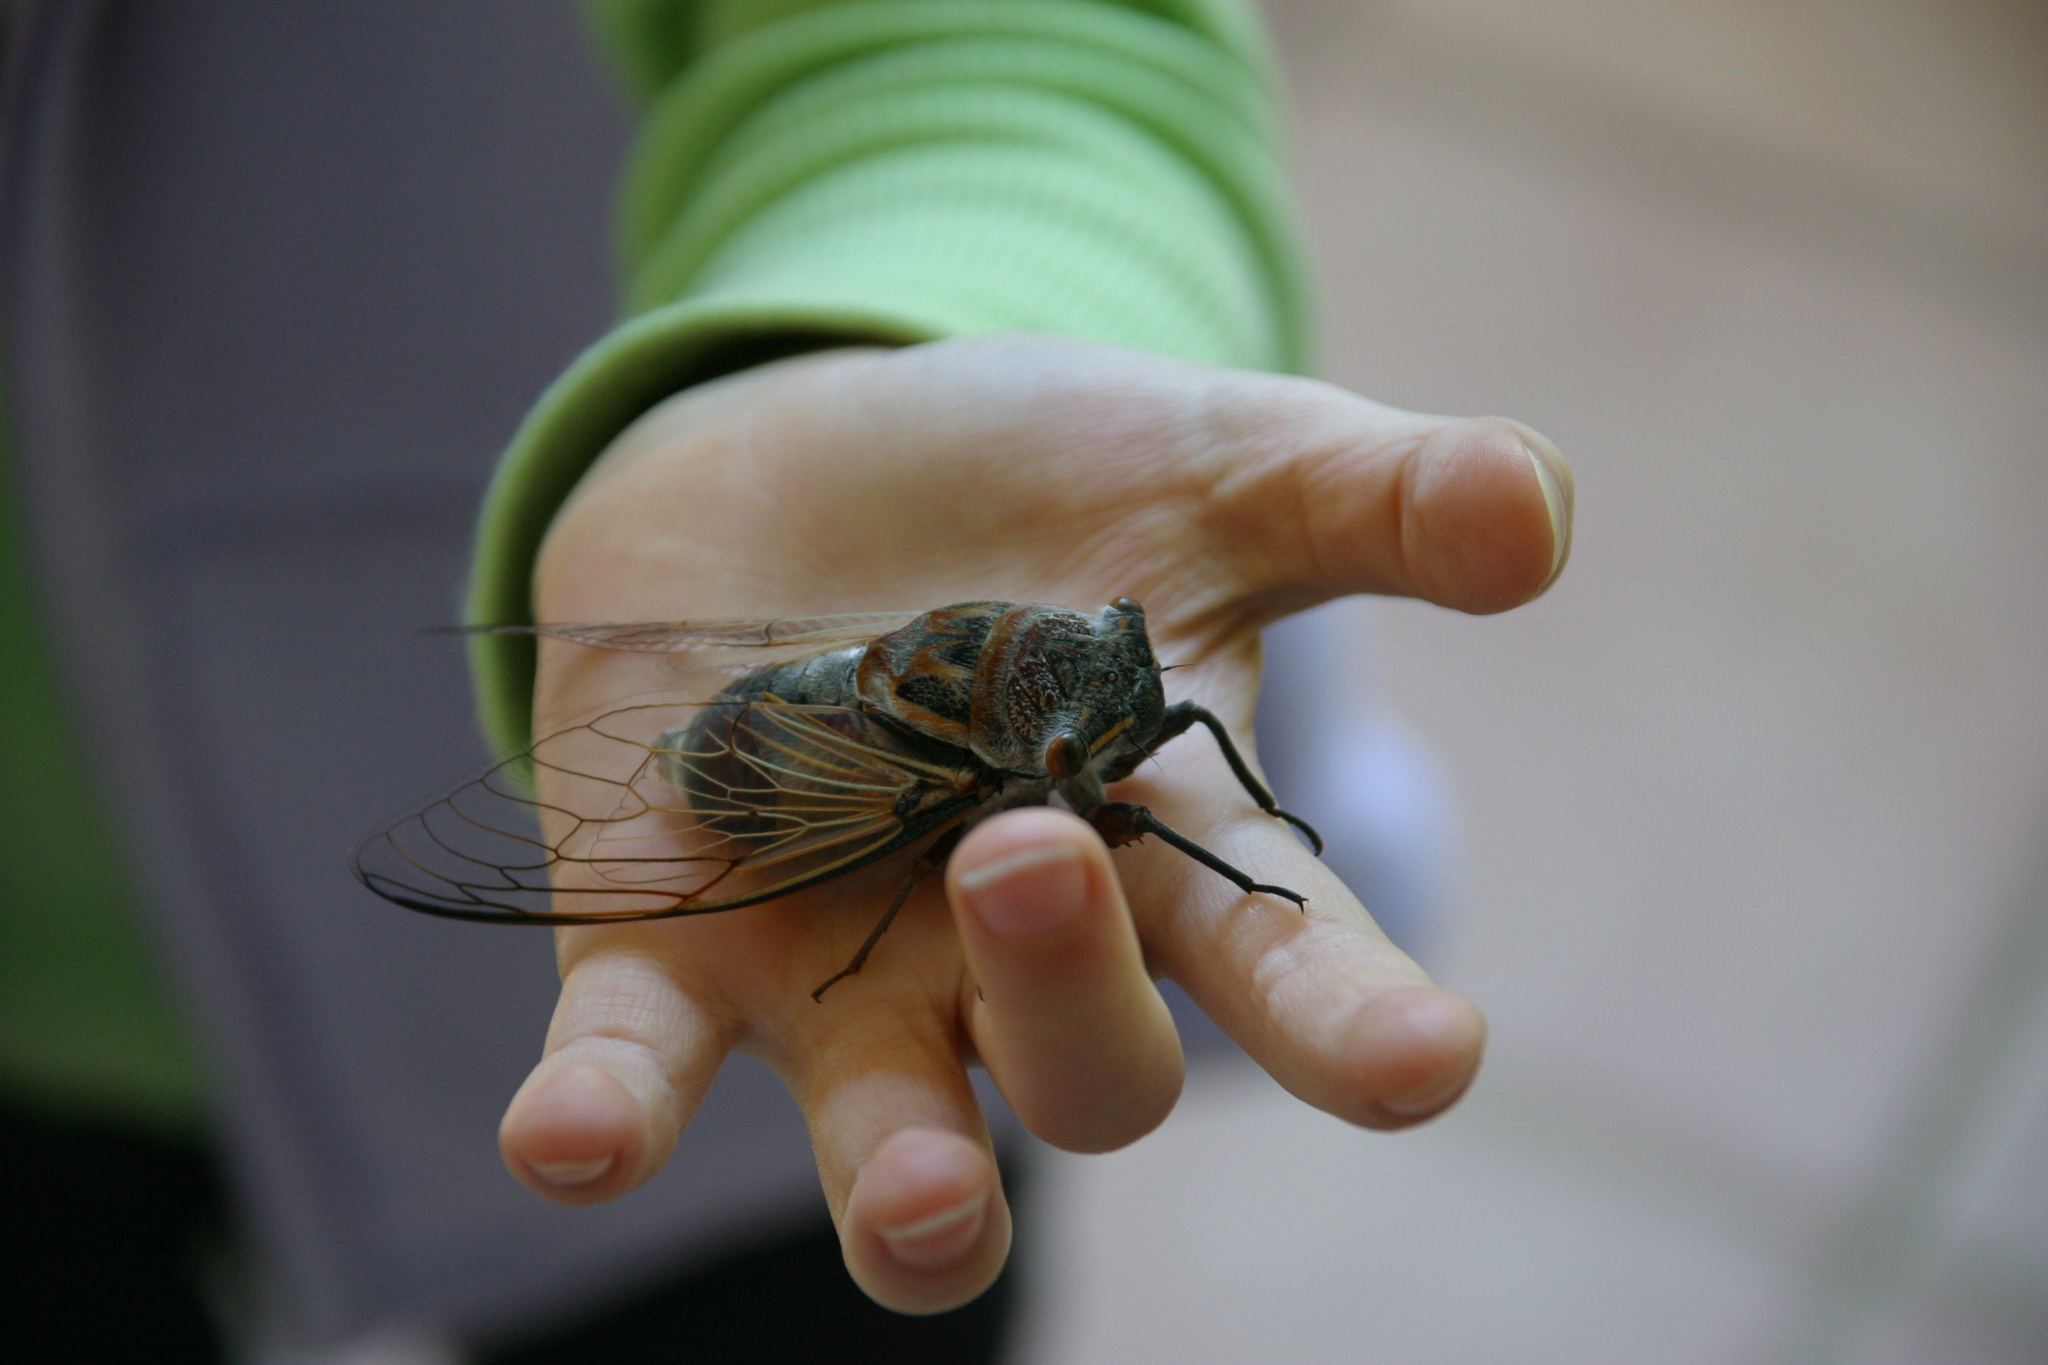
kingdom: Animalia
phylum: Arthropoda
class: Insecta
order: Hemiptera
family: Cicadidae
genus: Thopha
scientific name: Thopha saccata
